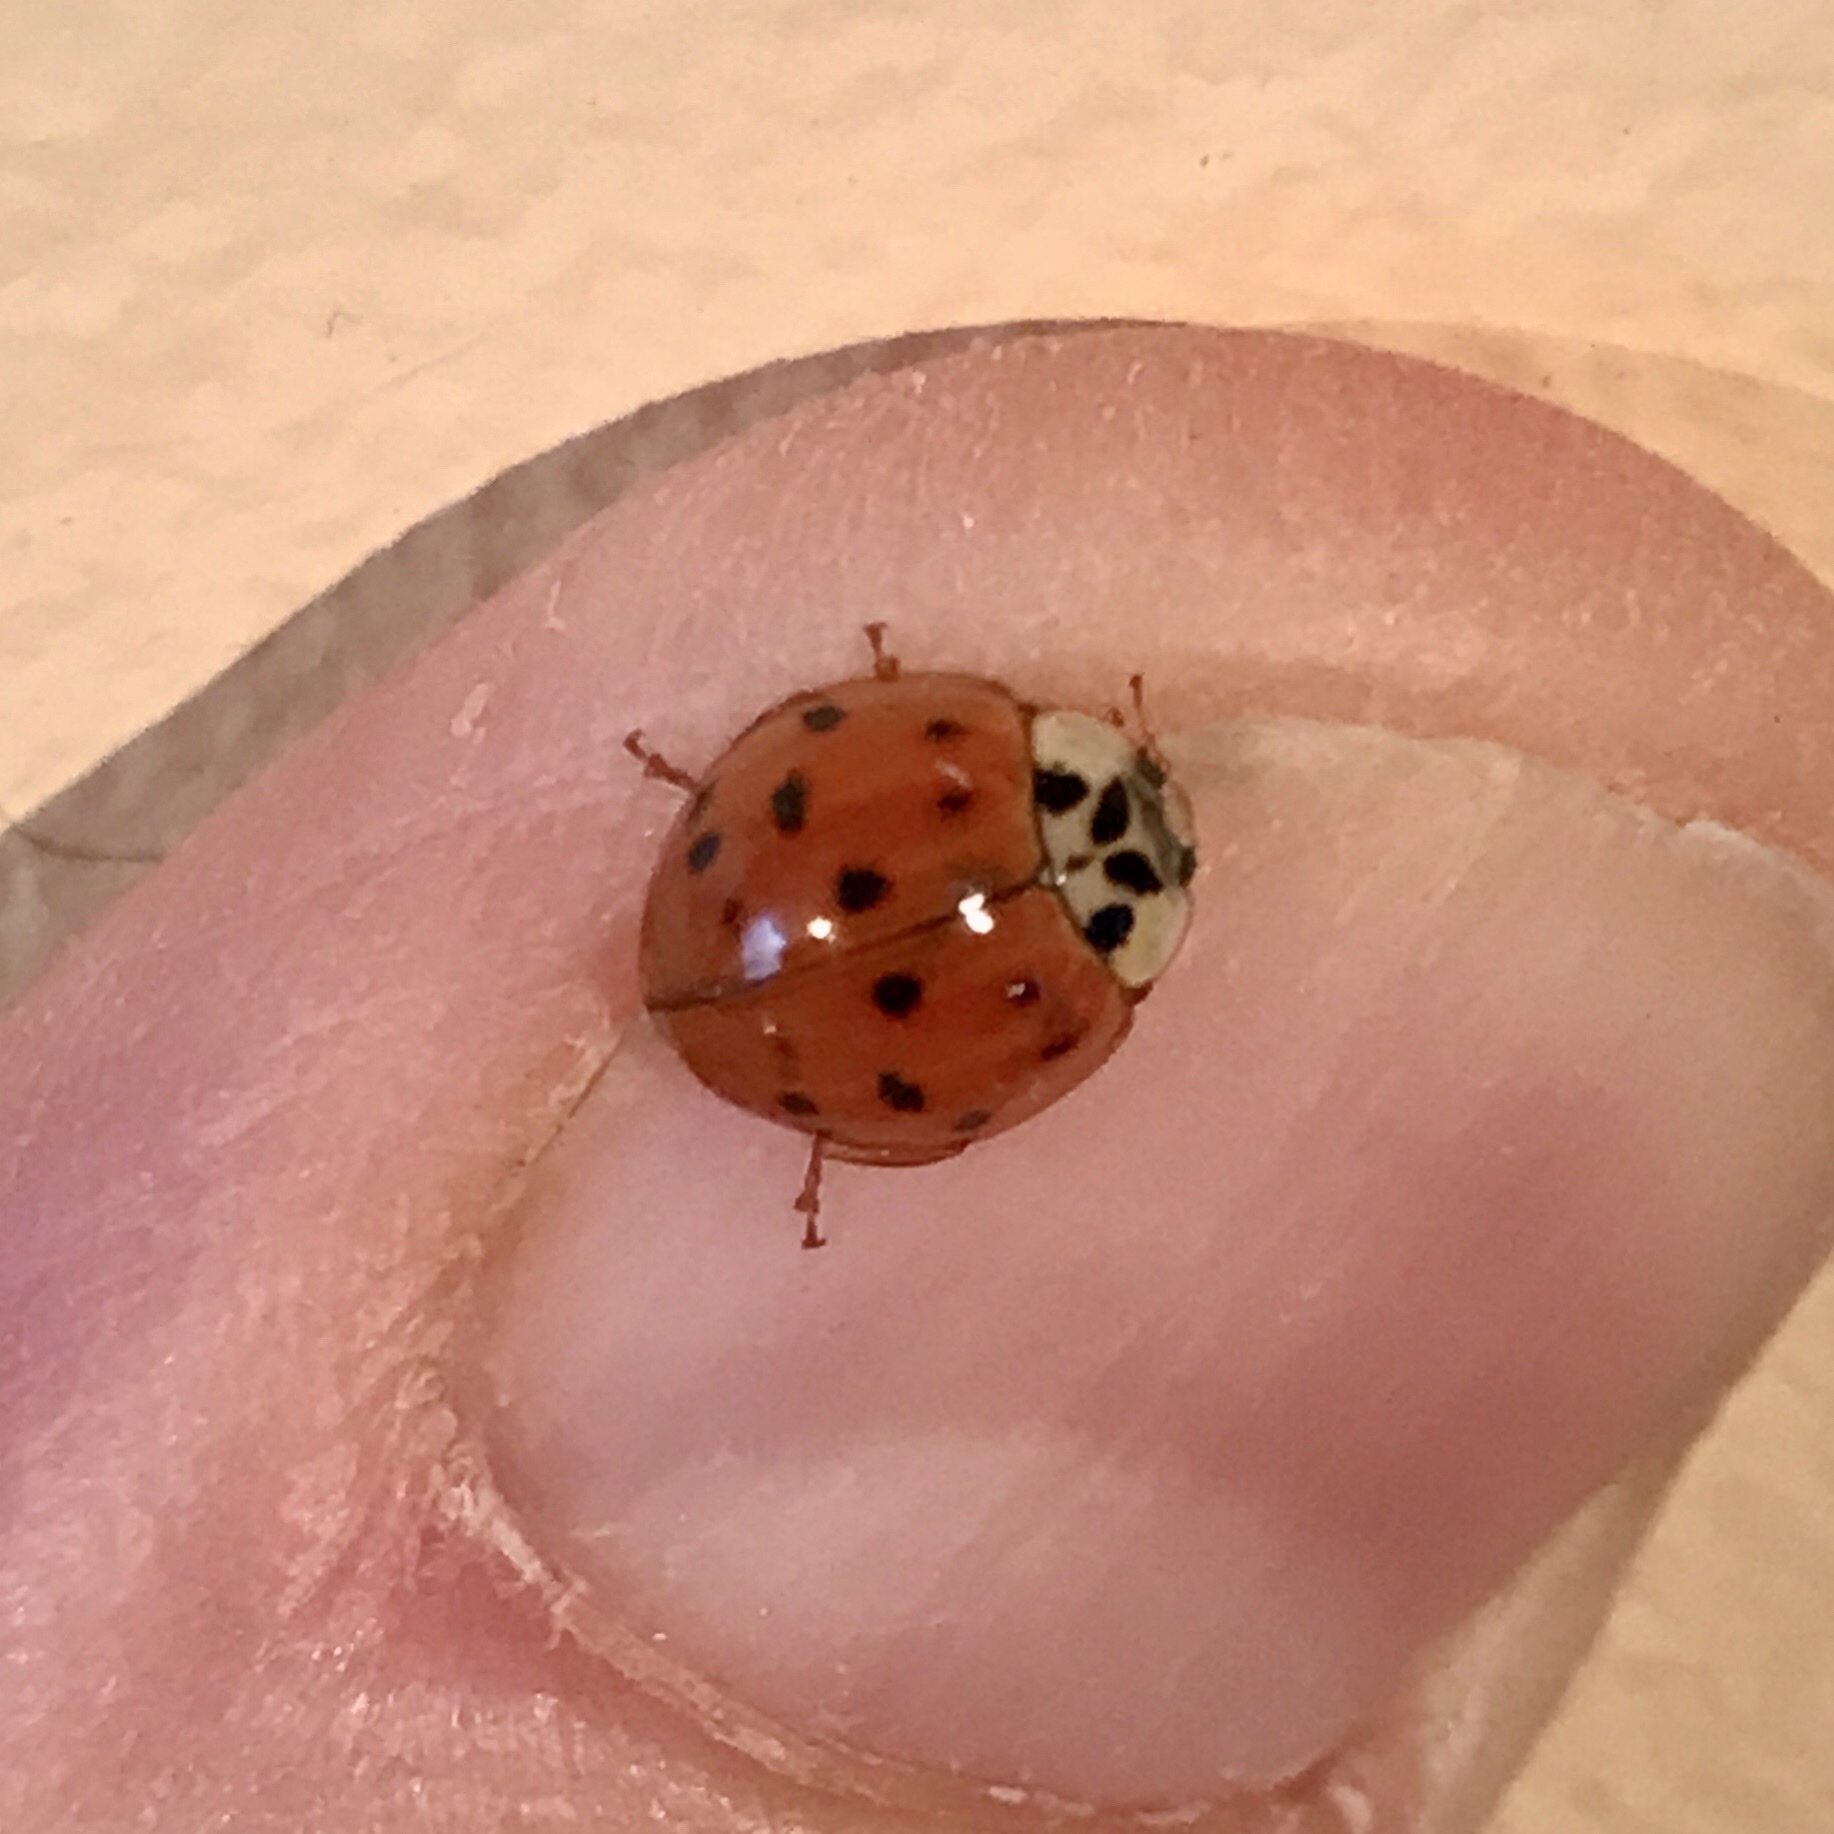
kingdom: Animalia
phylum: Arthropoda
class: Insecta
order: Coleoptera
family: Coccinellidae
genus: Harmonia
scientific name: Harmonia axyridis
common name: Harlequin ladybird
